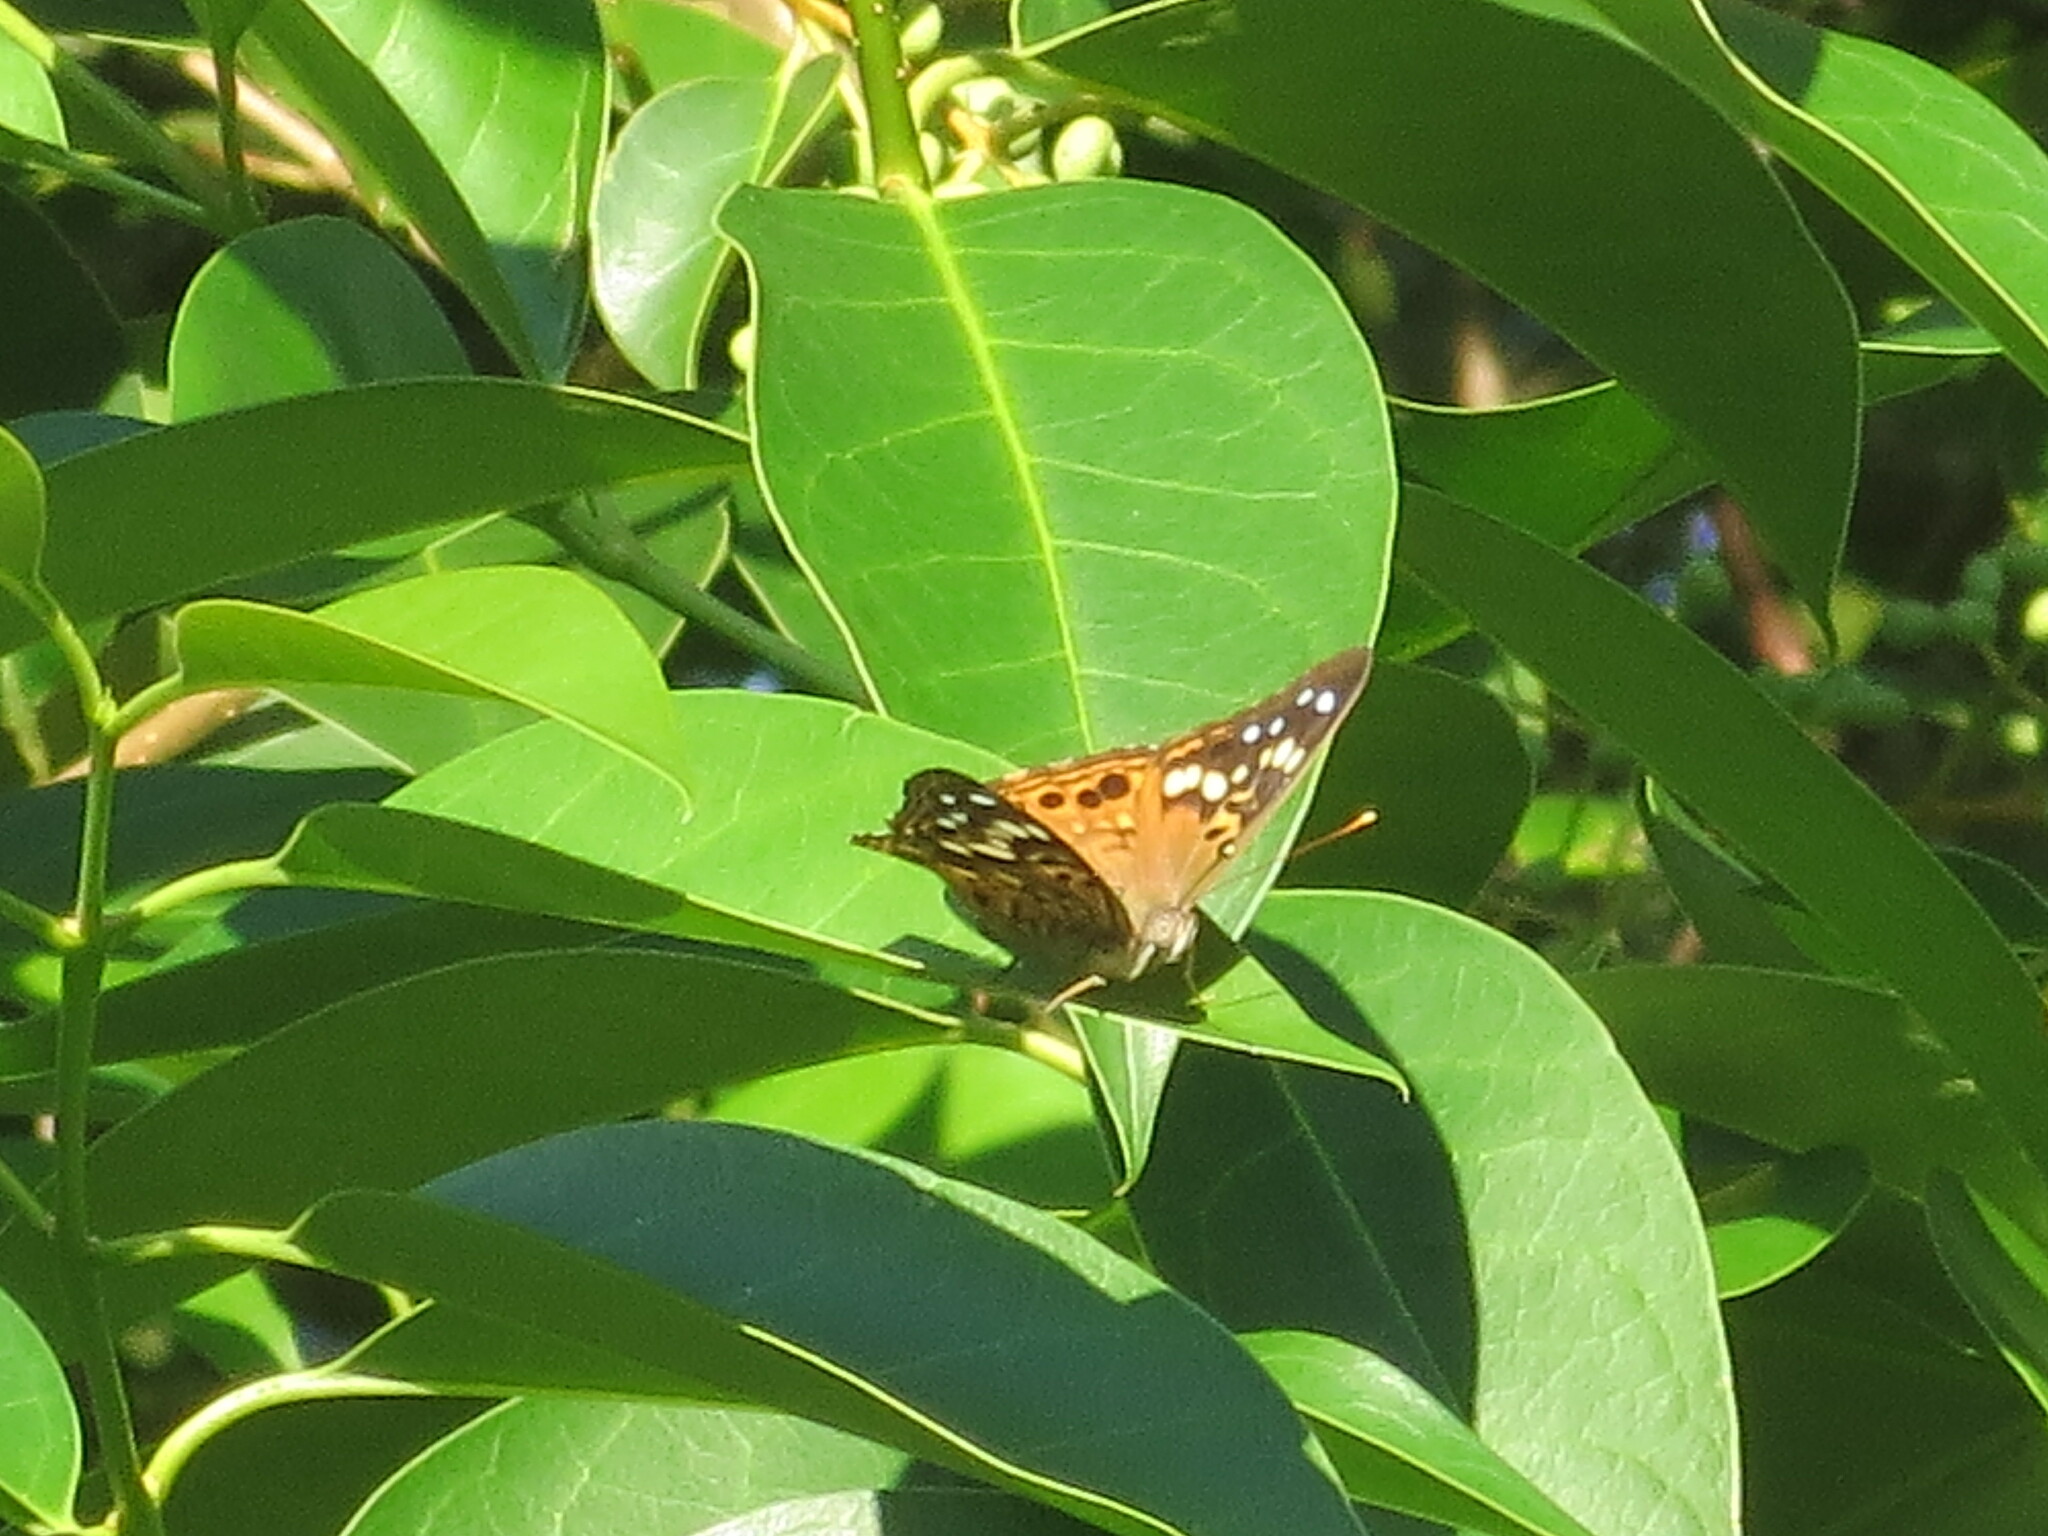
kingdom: Animalia
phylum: Arthropoda
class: Insecta
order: Lepidoptera
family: Nymphalidae
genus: Asterocampa
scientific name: Asterocampa celtis
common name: Hackberry emperor
